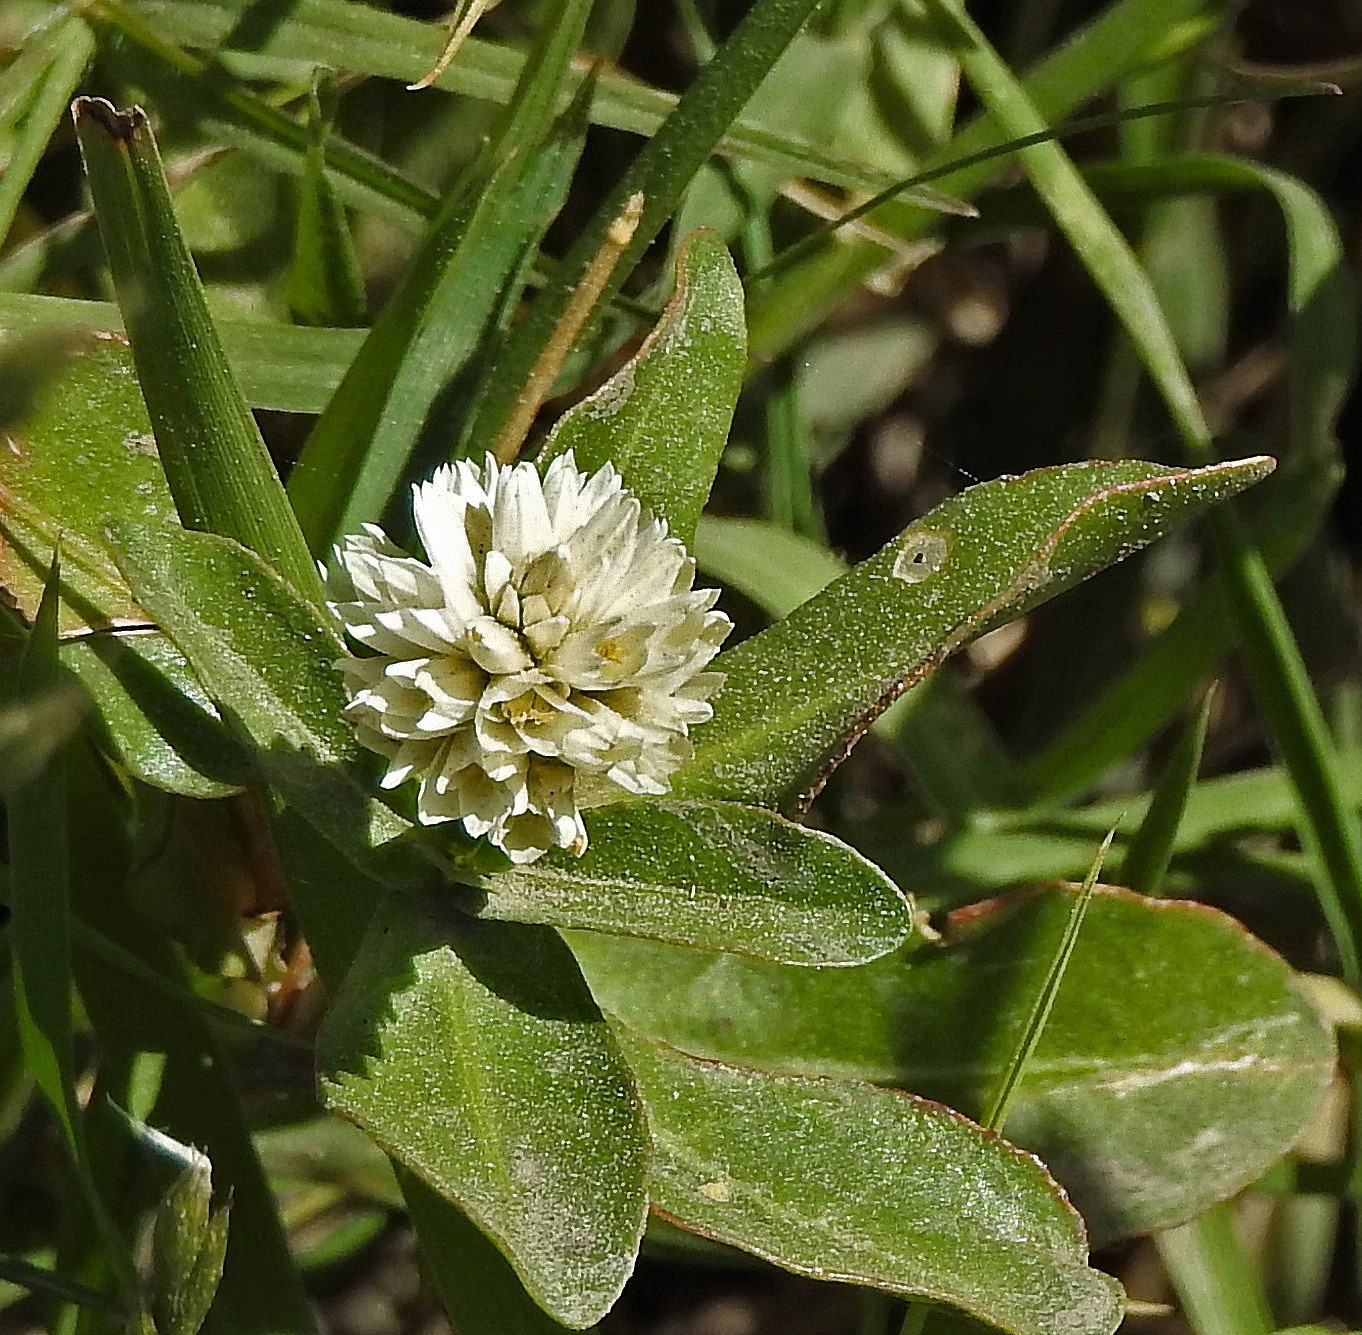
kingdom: Plantae
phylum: Tracheophyta
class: Magnoliopsida
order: Caryophyllales
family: Amaranthaceae
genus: Alternanthera
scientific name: Alternanthera philoxeroides
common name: Alligatorweed
